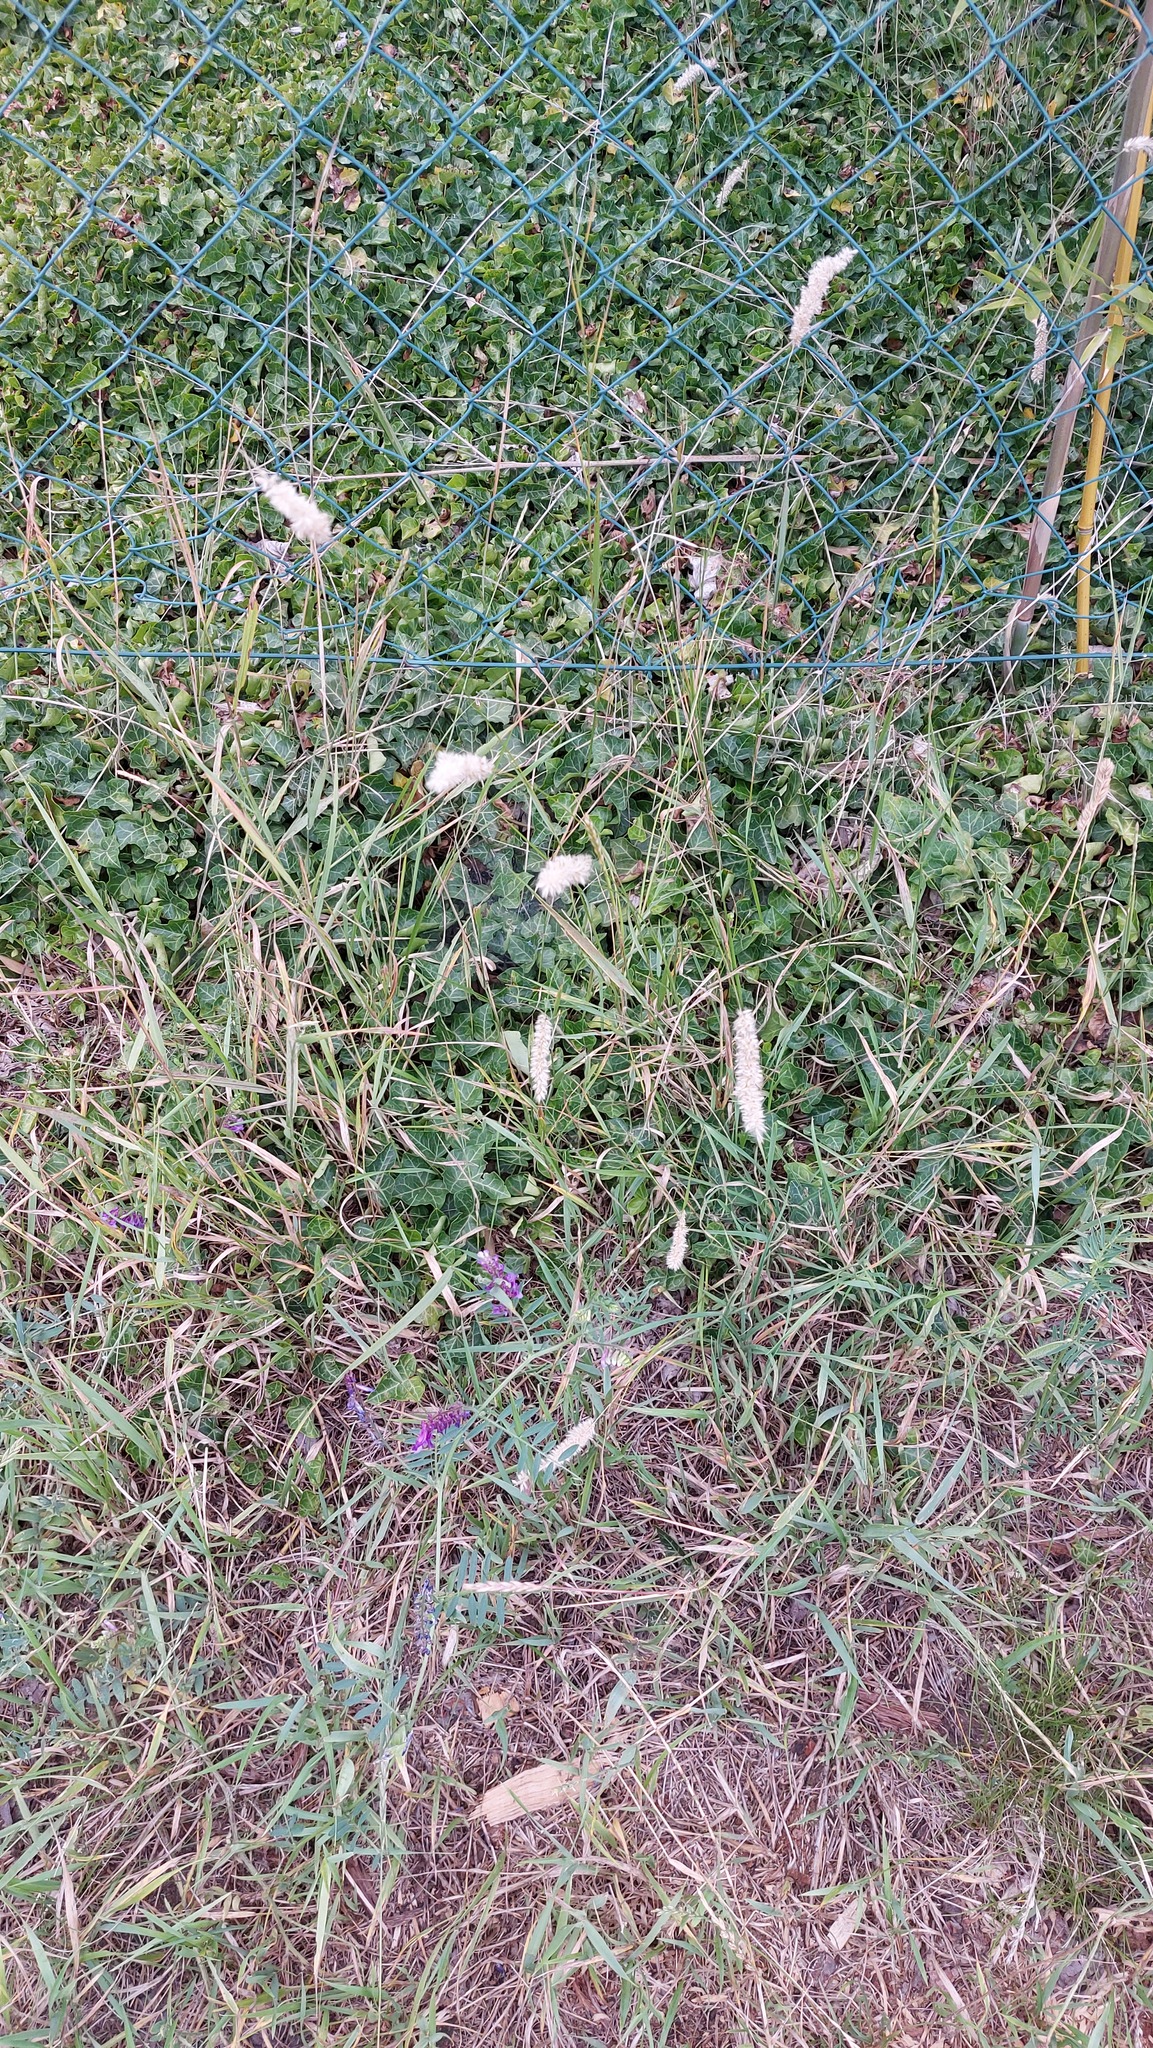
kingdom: Plantae
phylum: Tracheophyta
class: Liliopsida
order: Poales
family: Poaceae
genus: Melica
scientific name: Melica transsilvanica
